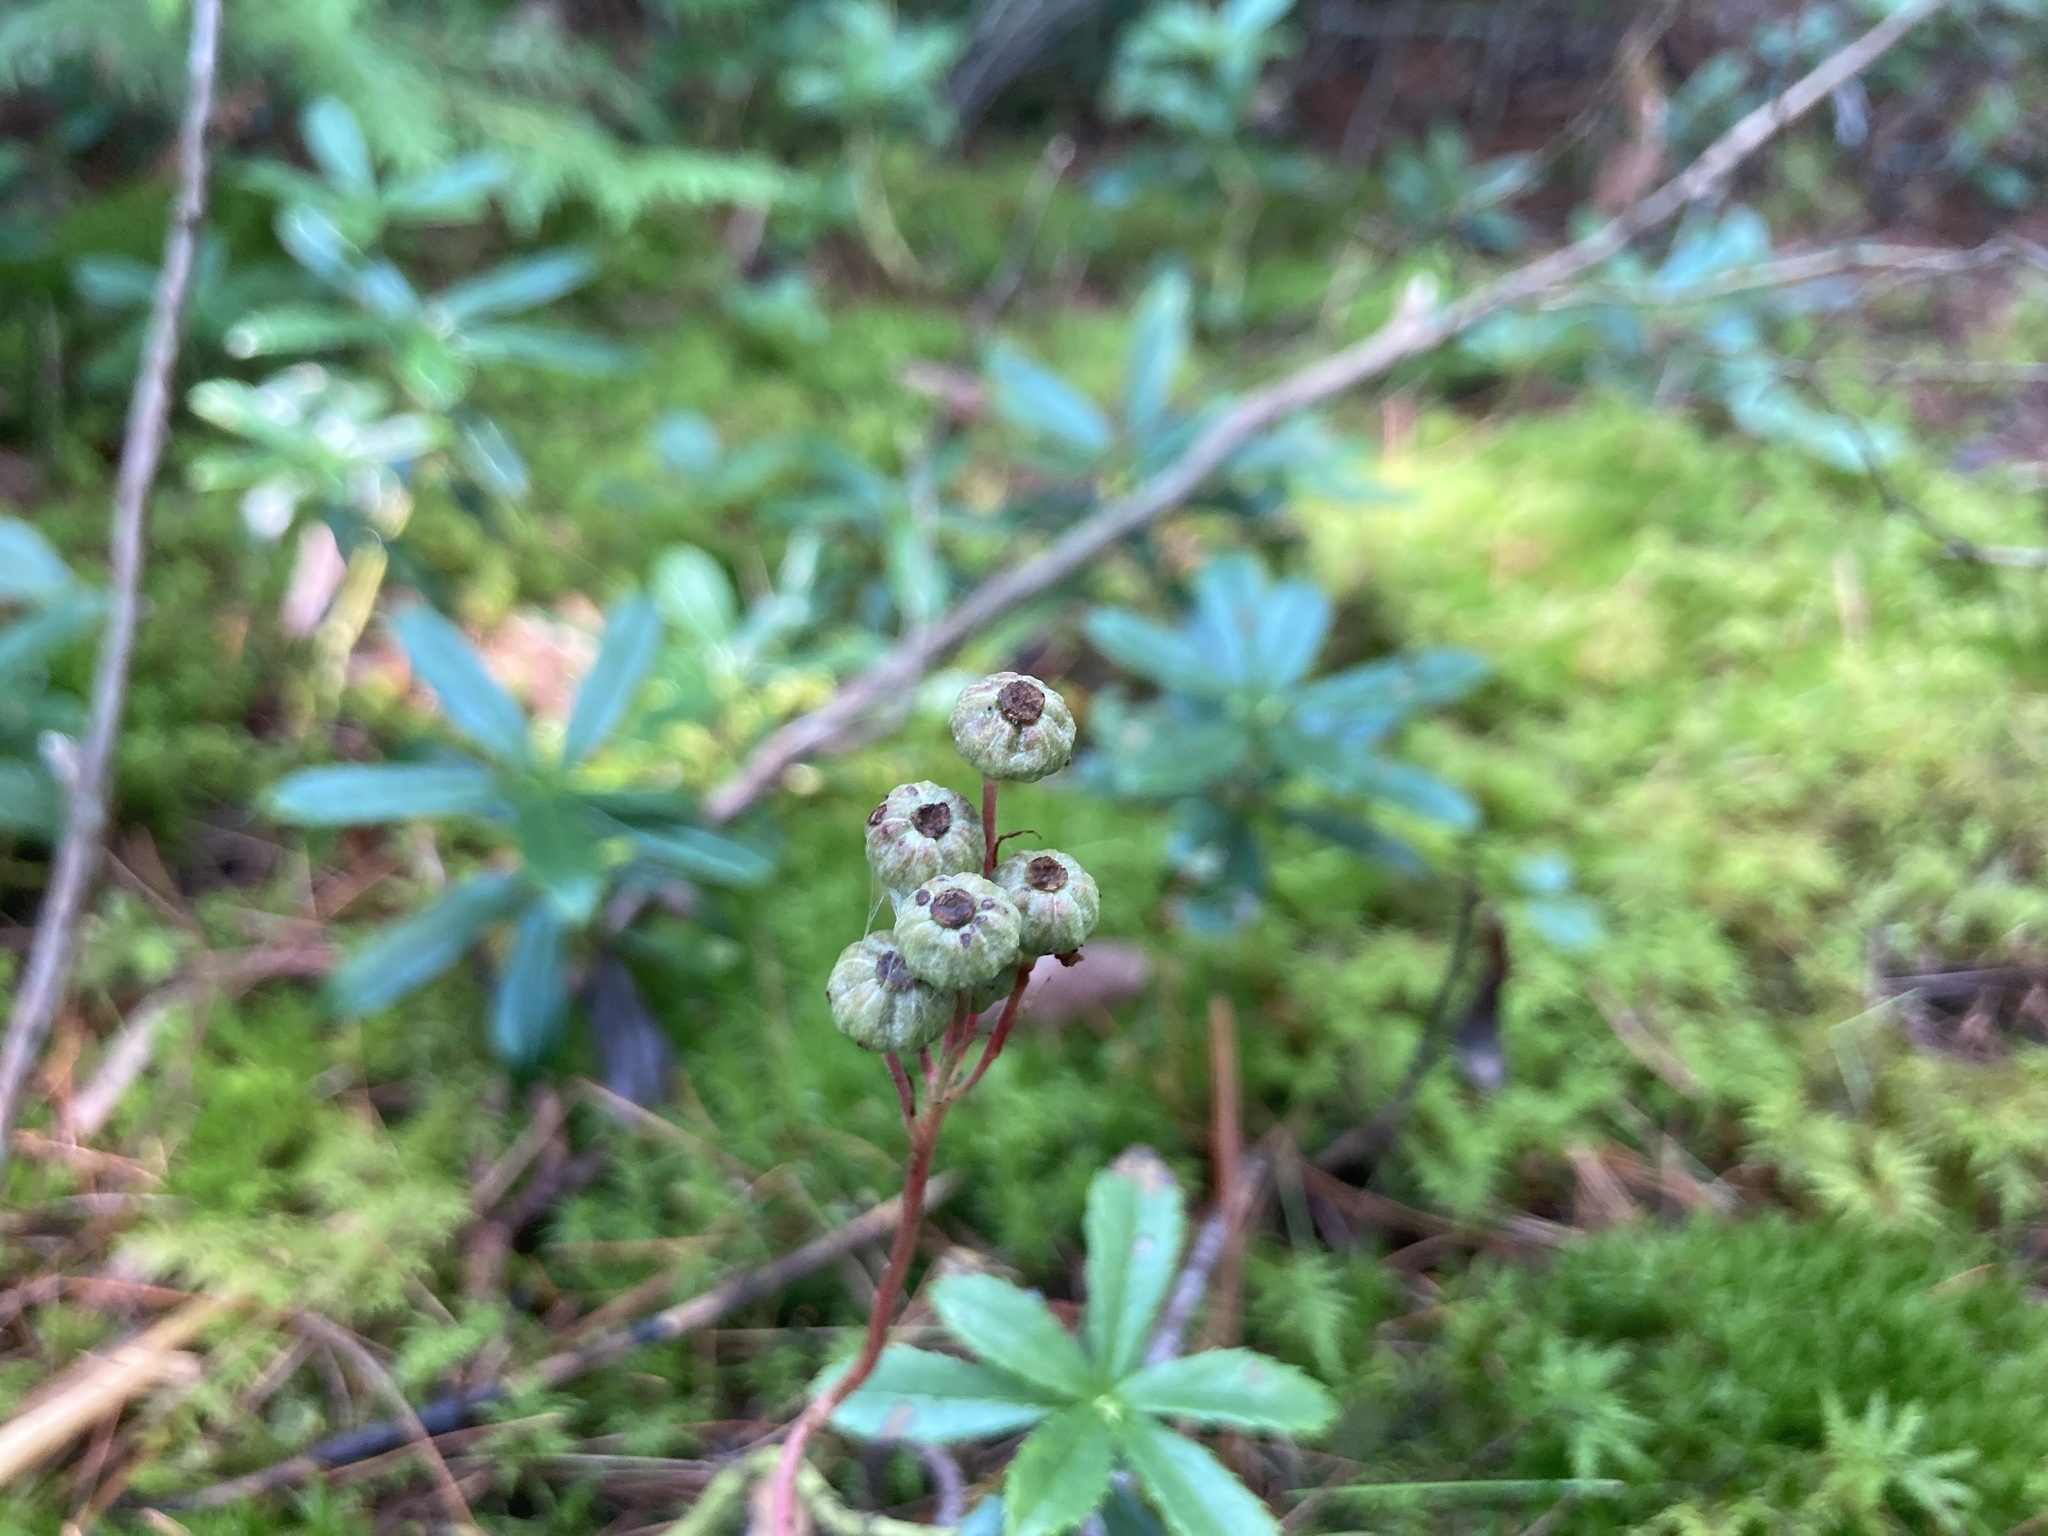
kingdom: Plantae
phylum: Tracheophyta
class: Magnoliopsida
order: Ericales
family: Ericaceae
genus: Chimaphila
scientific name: Chimaphila umbellata
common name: Pipsissewa
